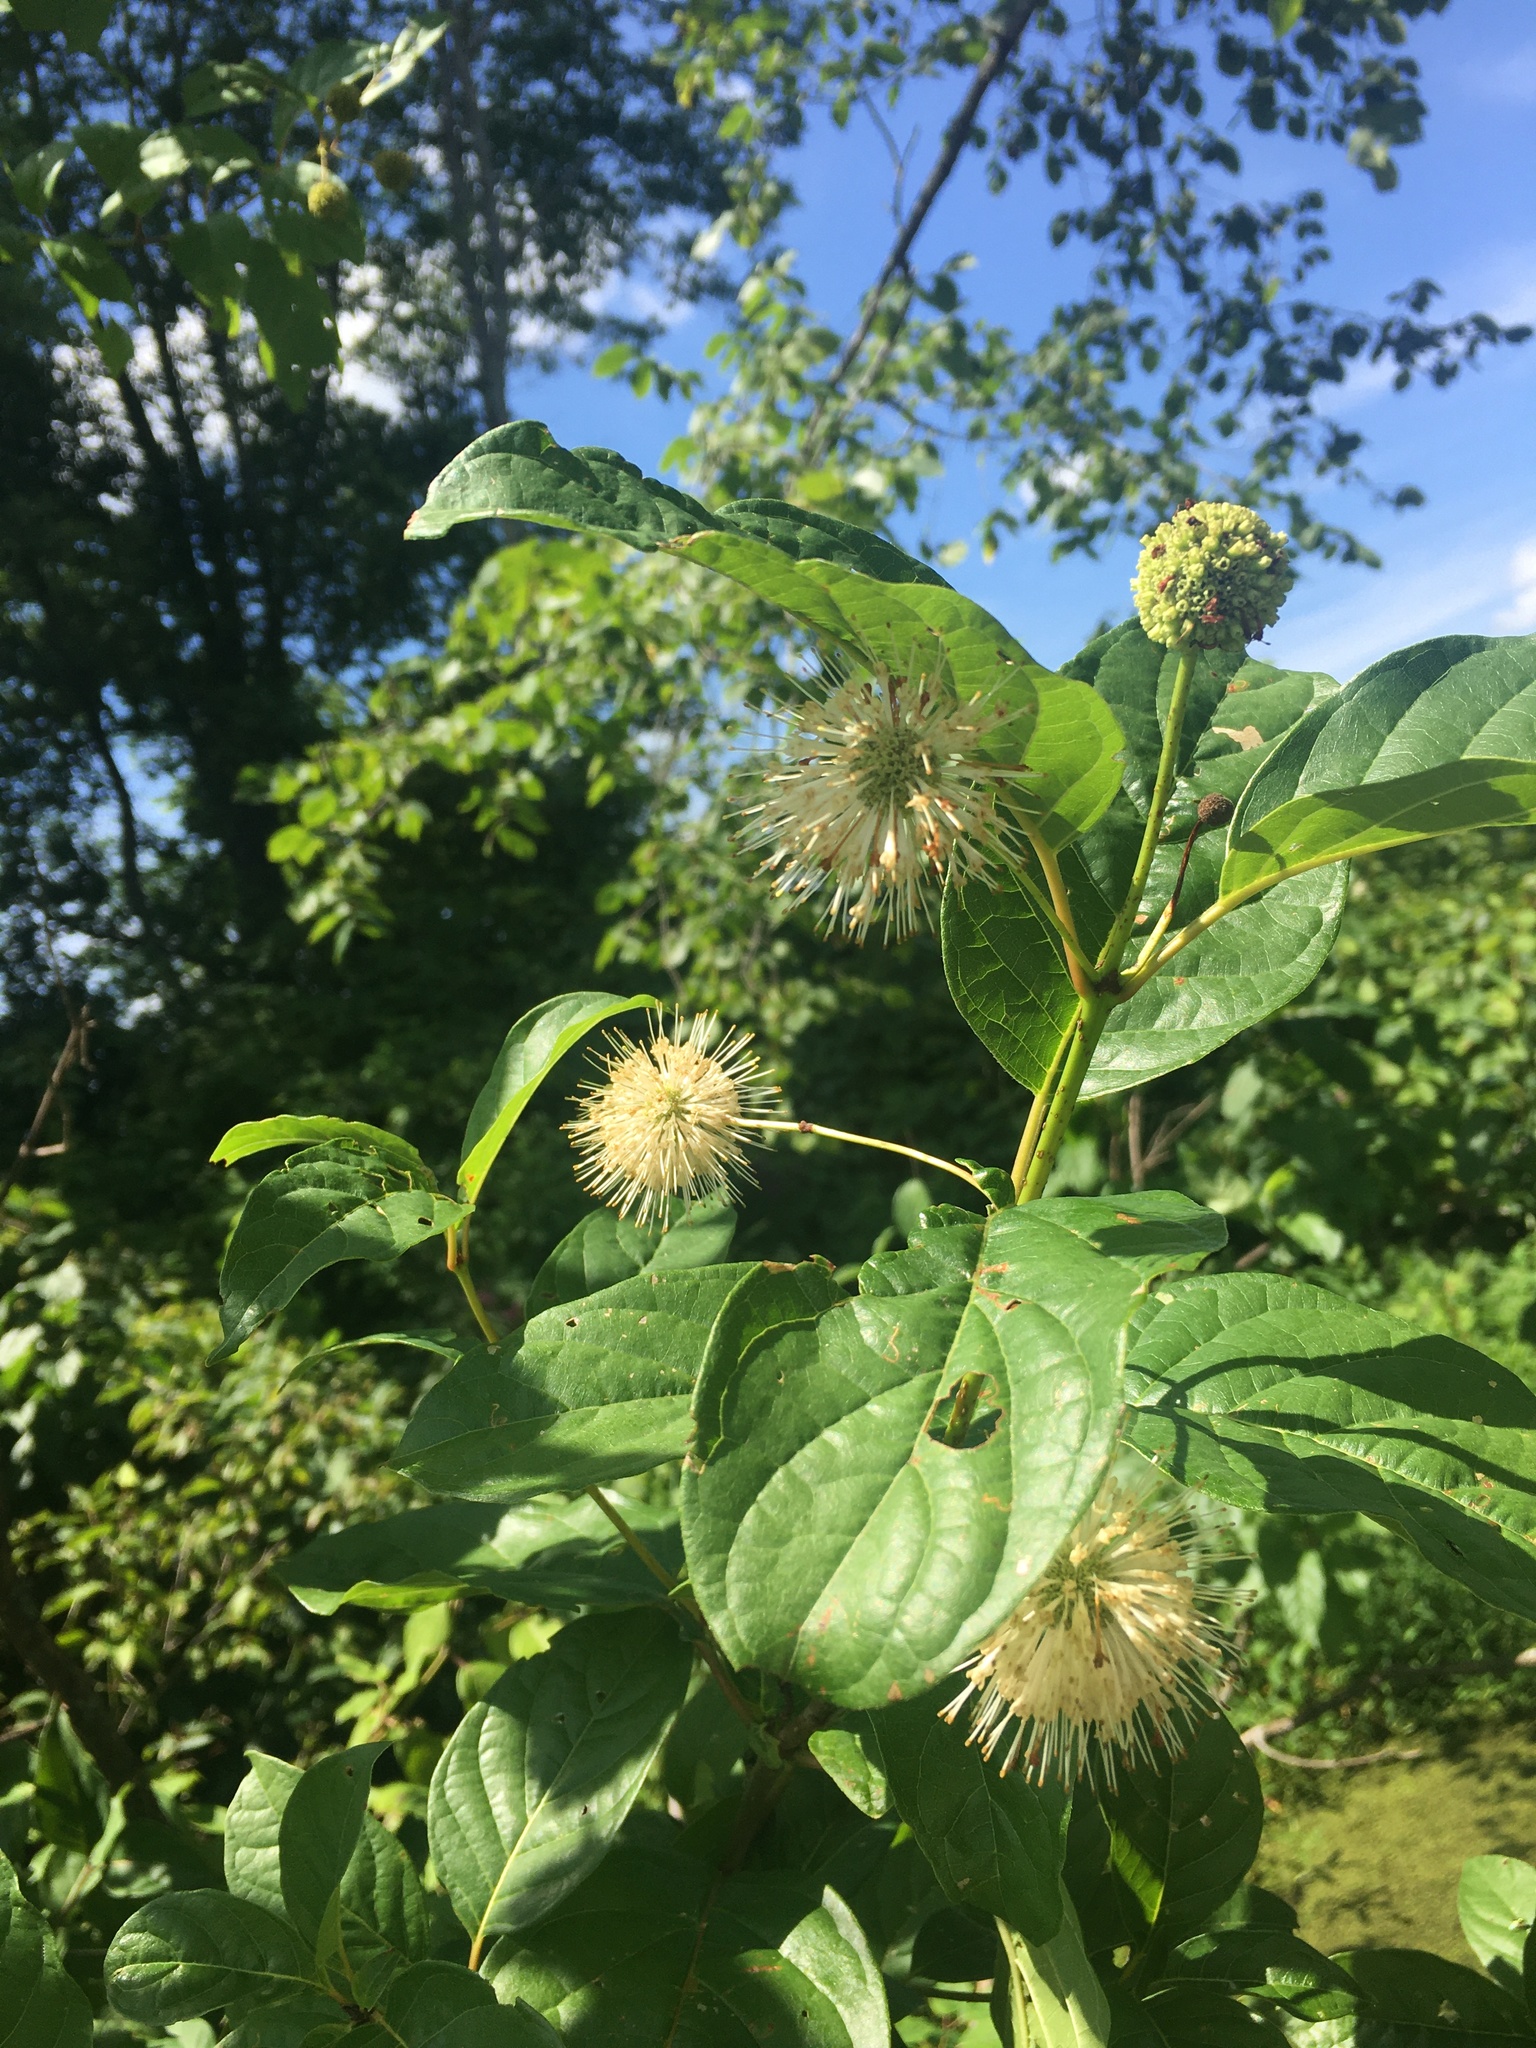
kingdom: Plantae
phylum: Tracheophyta
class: Magnoliopsida
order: Gentianales
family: Rubiaceae
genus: Cephalanthus
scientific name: Cephalanthus occidentalis
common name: Button-willow
